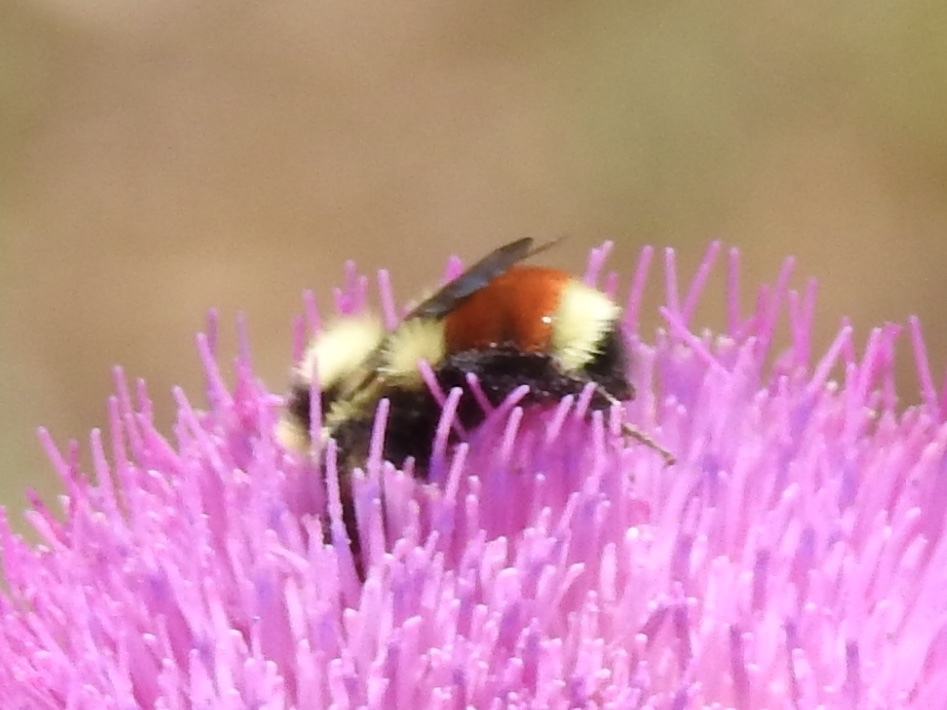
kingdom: Animalia
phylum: Arthropoda
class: Insecta
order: Hymenoptera
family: Apidae
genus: Bombus
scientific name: Bombus huntii
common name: Hunt bumble bee
